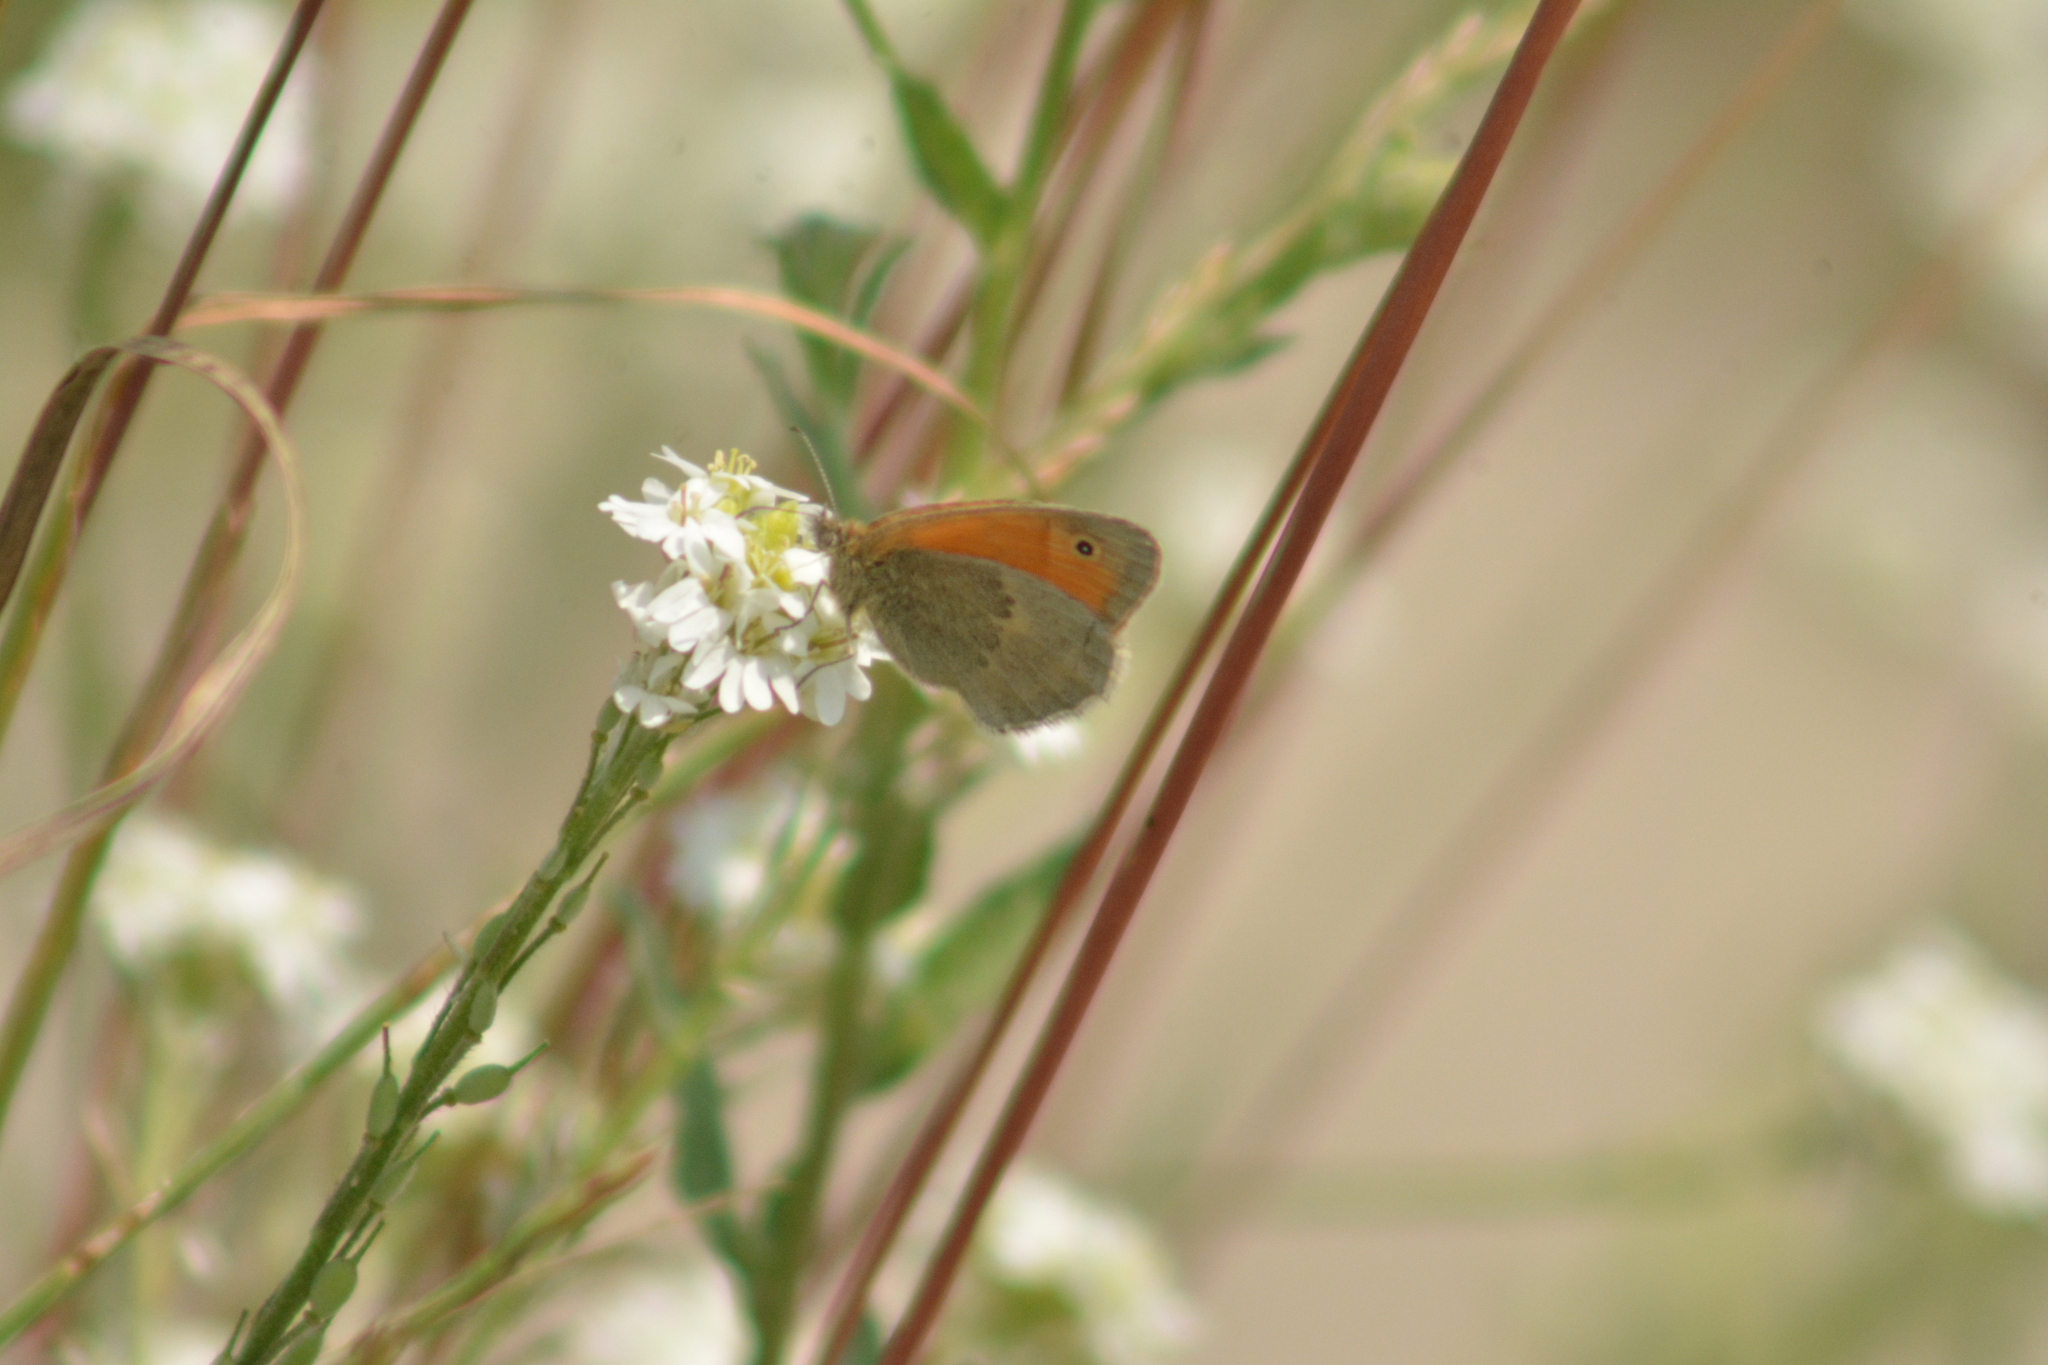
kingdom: Animalia
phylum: Arthropoda
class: Insecta
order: Lepidoptera
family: Nymphalidae
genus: Coenonympha
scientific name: Coenonympha pamphilus
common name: Small heath
